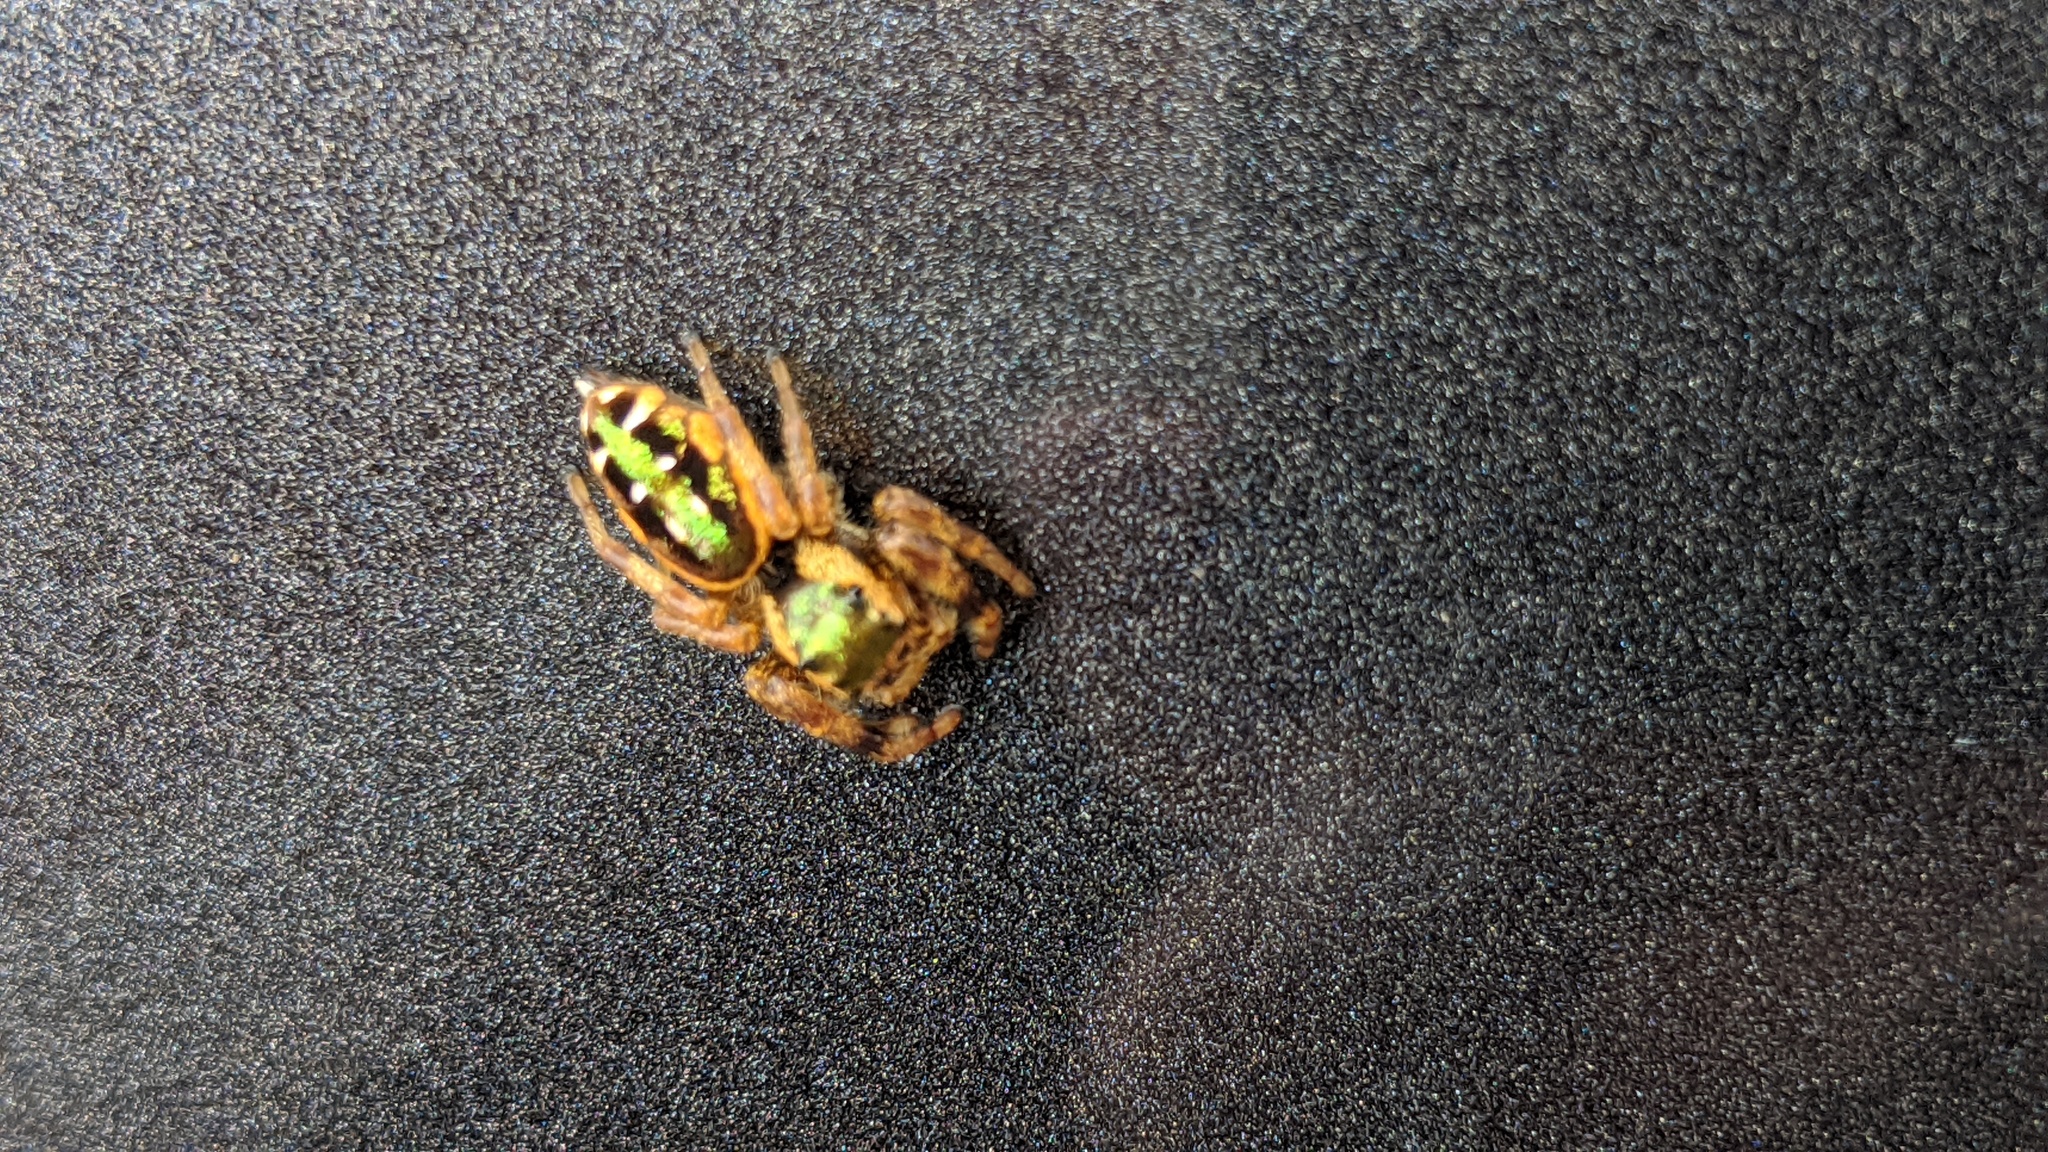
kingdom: Animalia
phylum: Arthropoda
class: Arachnida
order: Araneae
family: Salticidae
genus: Paraphidippus
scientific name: Paraphidippus aurantius
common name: Jumping spiders
